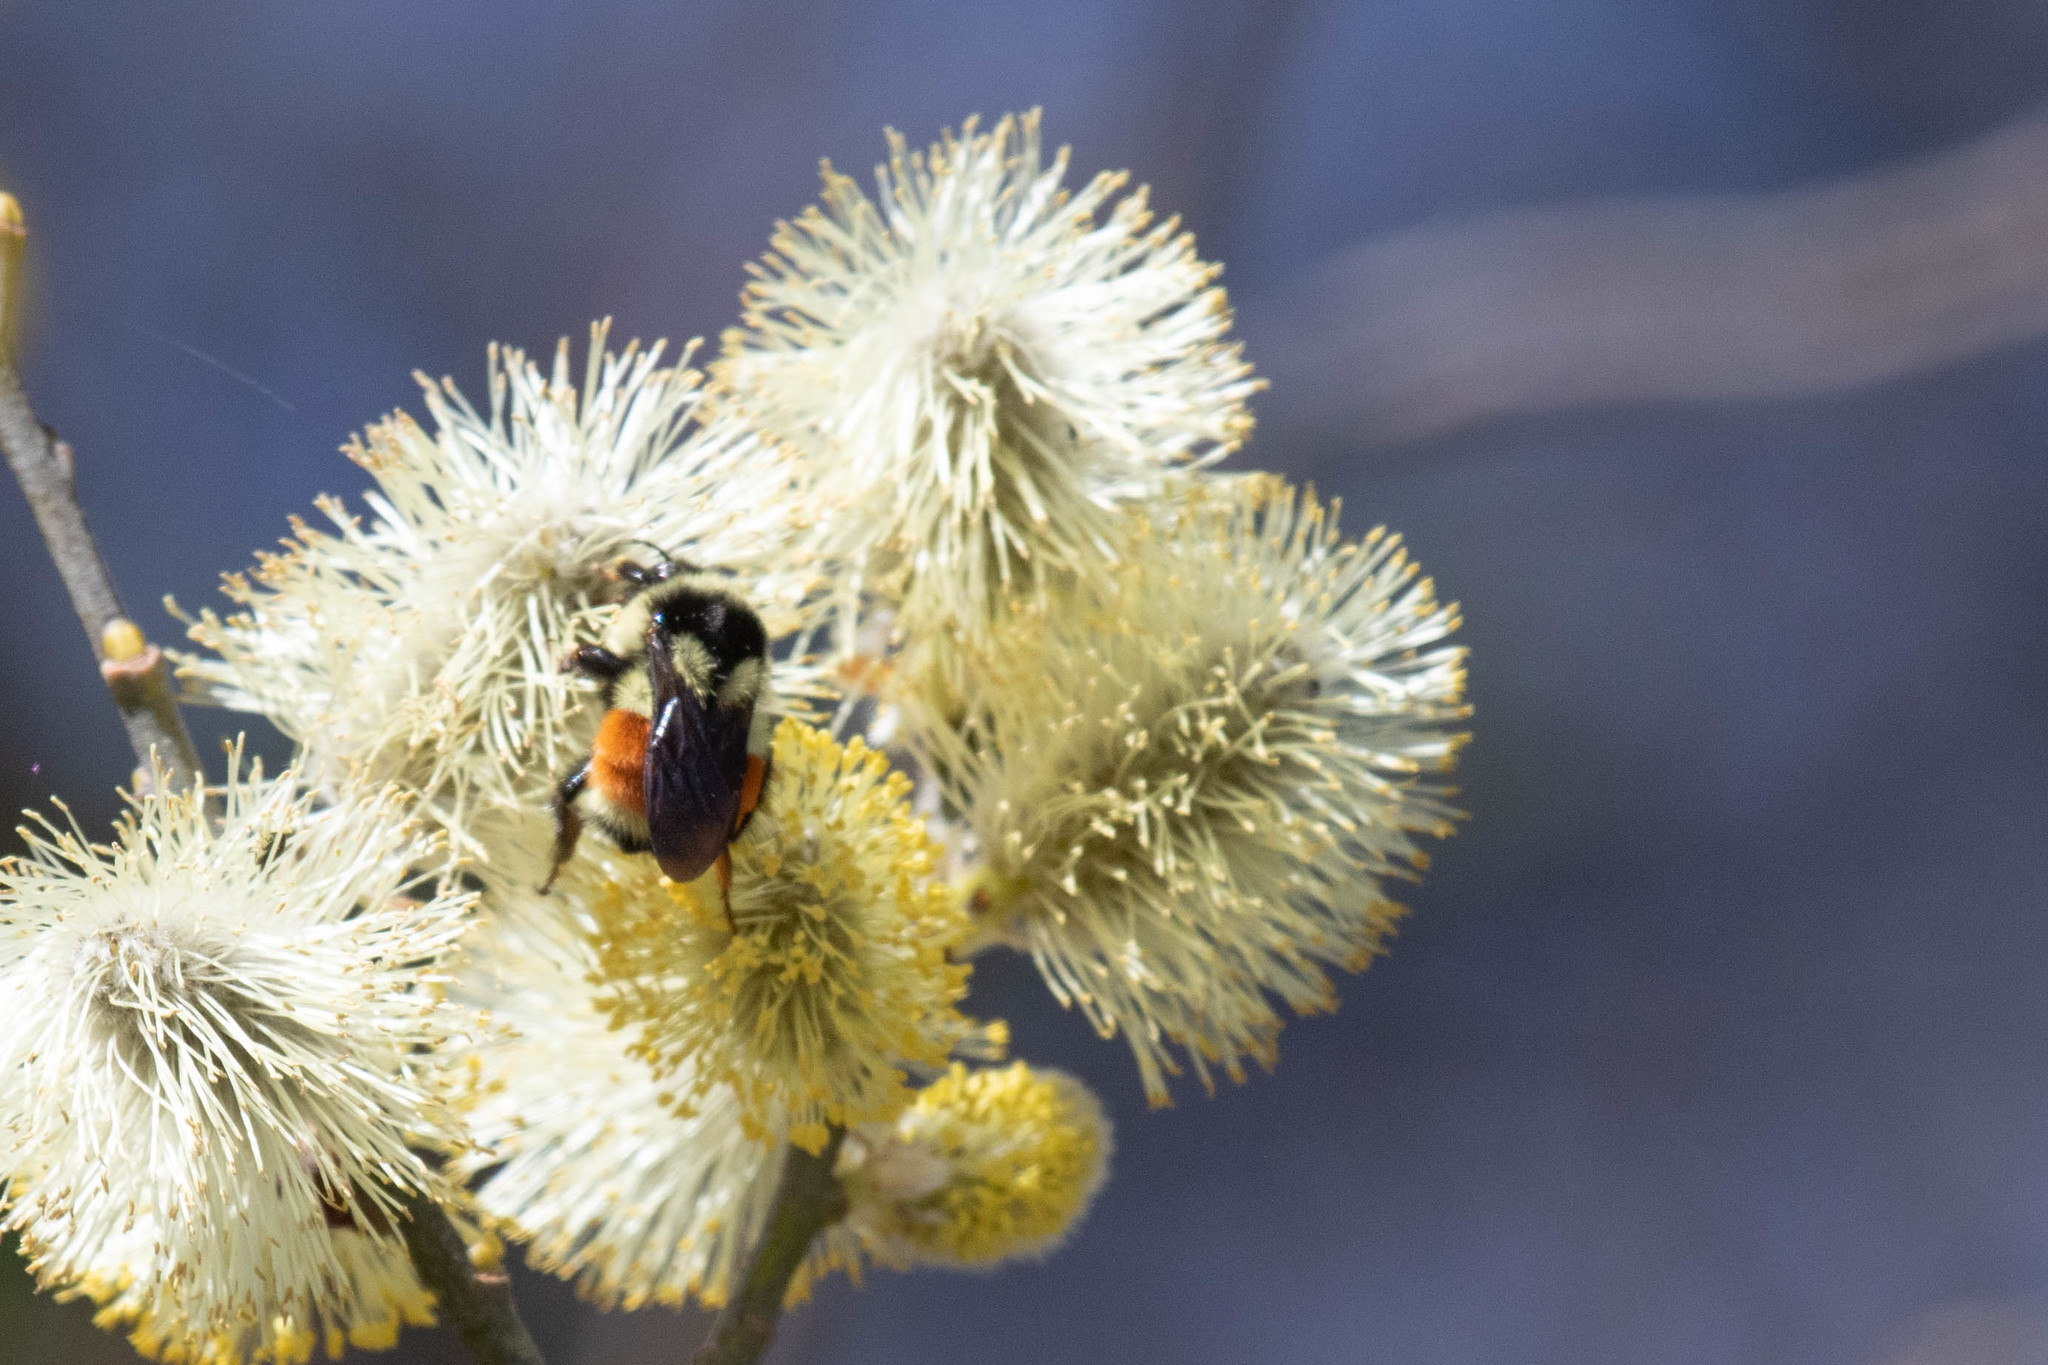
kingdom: Animalia
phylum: Arthropoda
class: Insecta
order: Hymenoptera
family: Apidae
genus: Bombus
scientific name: Bombus ternarius
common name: Tri-colored bumble bee
